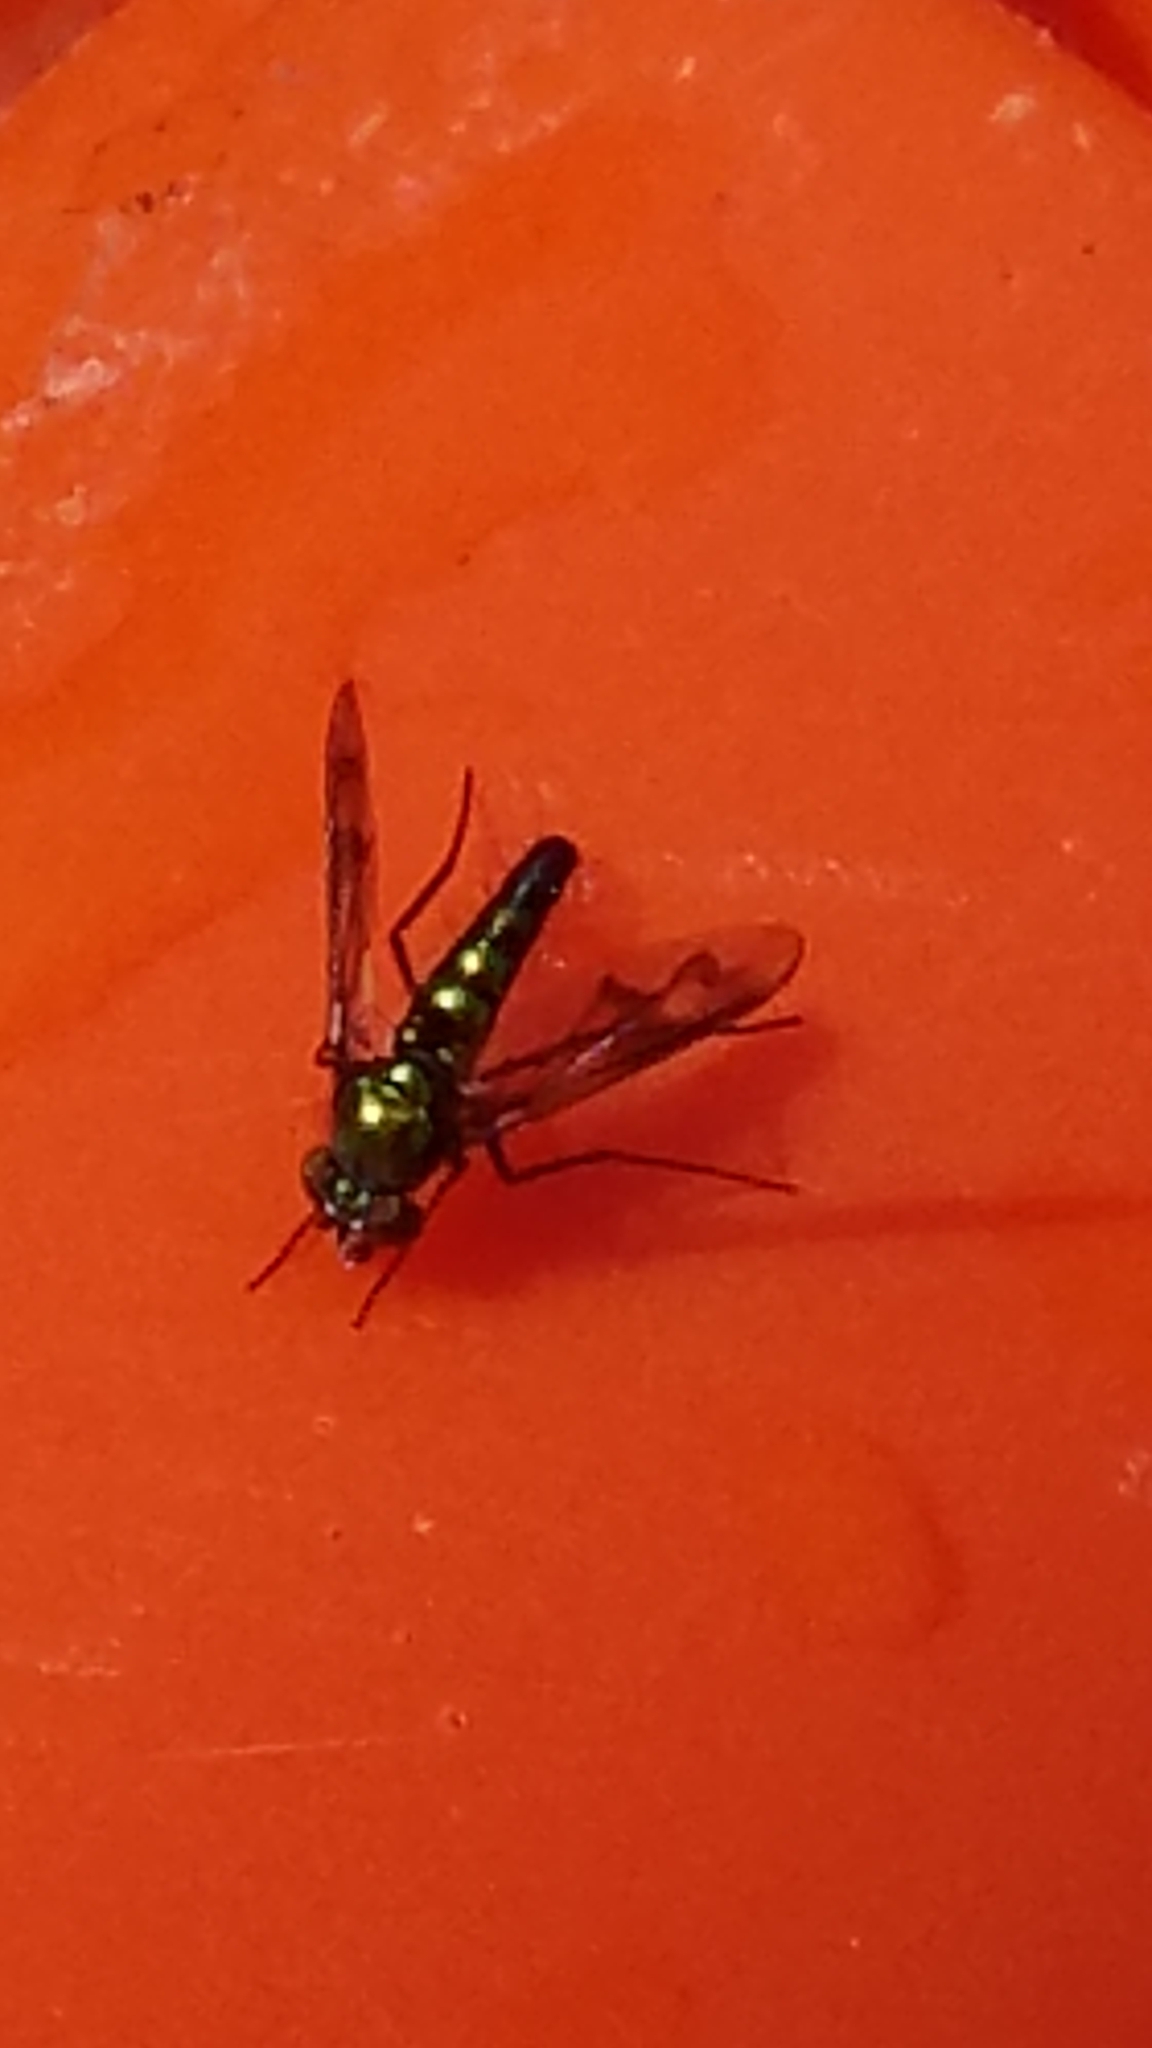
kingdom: Animalia
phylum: Arthropoda
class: Insecta
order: Diptera
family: Dolichopodidae
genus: Condylostylus
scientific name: Condylostylus patibulatus
